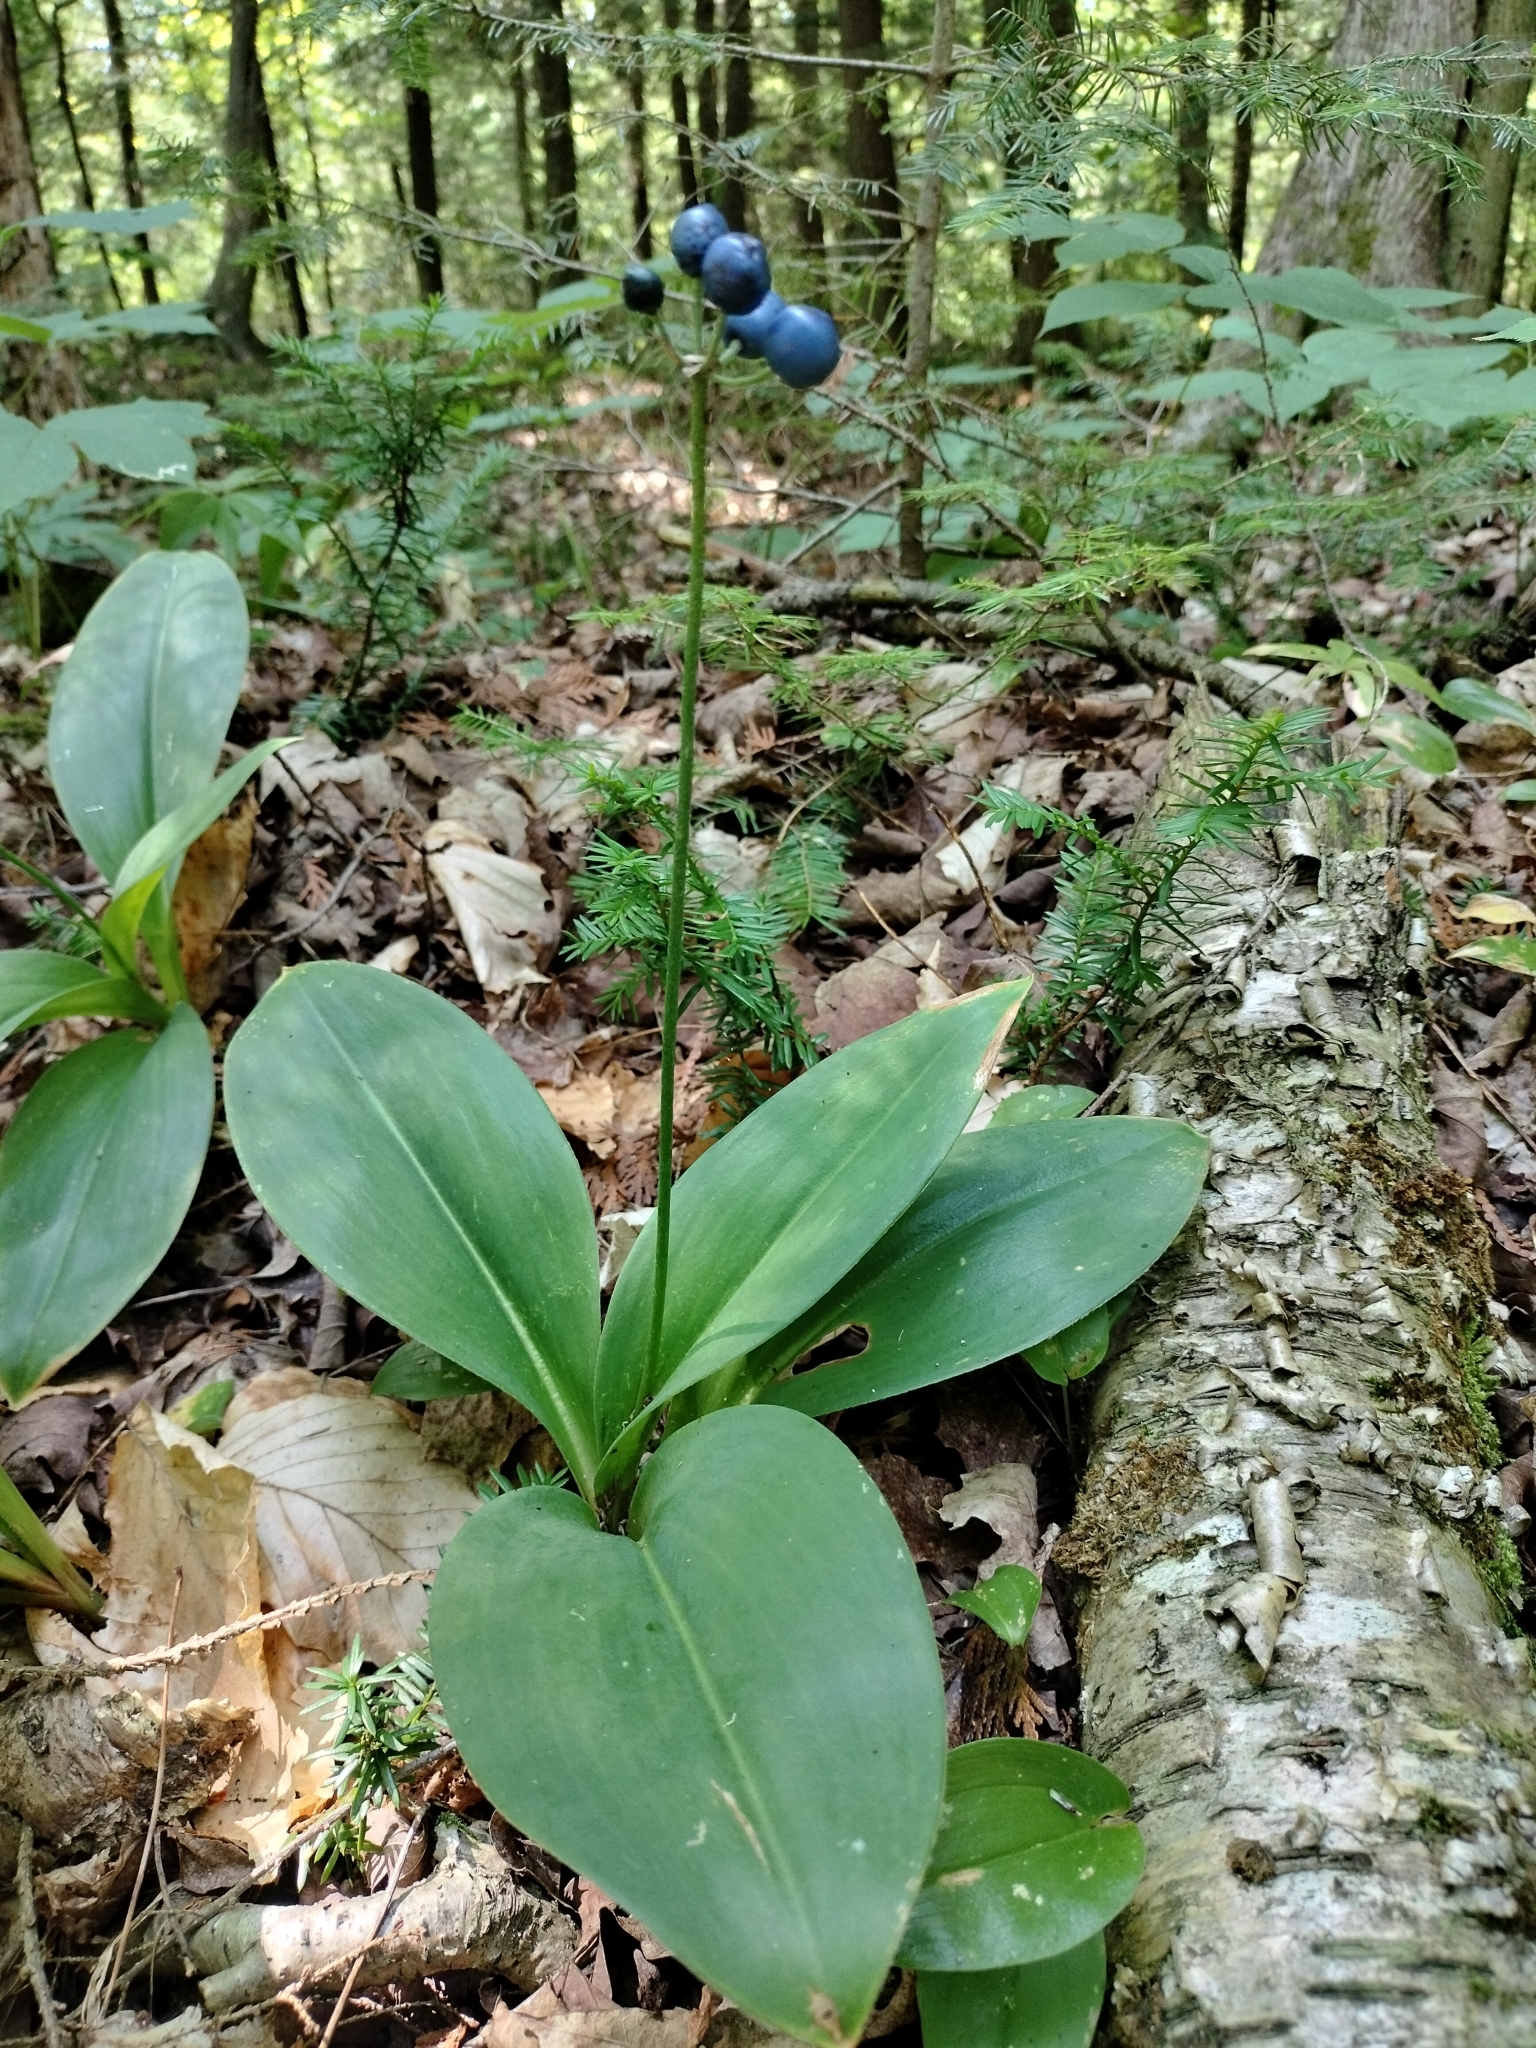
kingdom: Plantae
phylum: Tracheophyta
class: Liliopsida
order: Liliales
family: Liliaceae
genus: Clintonia
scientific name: Clintonia borealis
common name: Yellow clintonia
